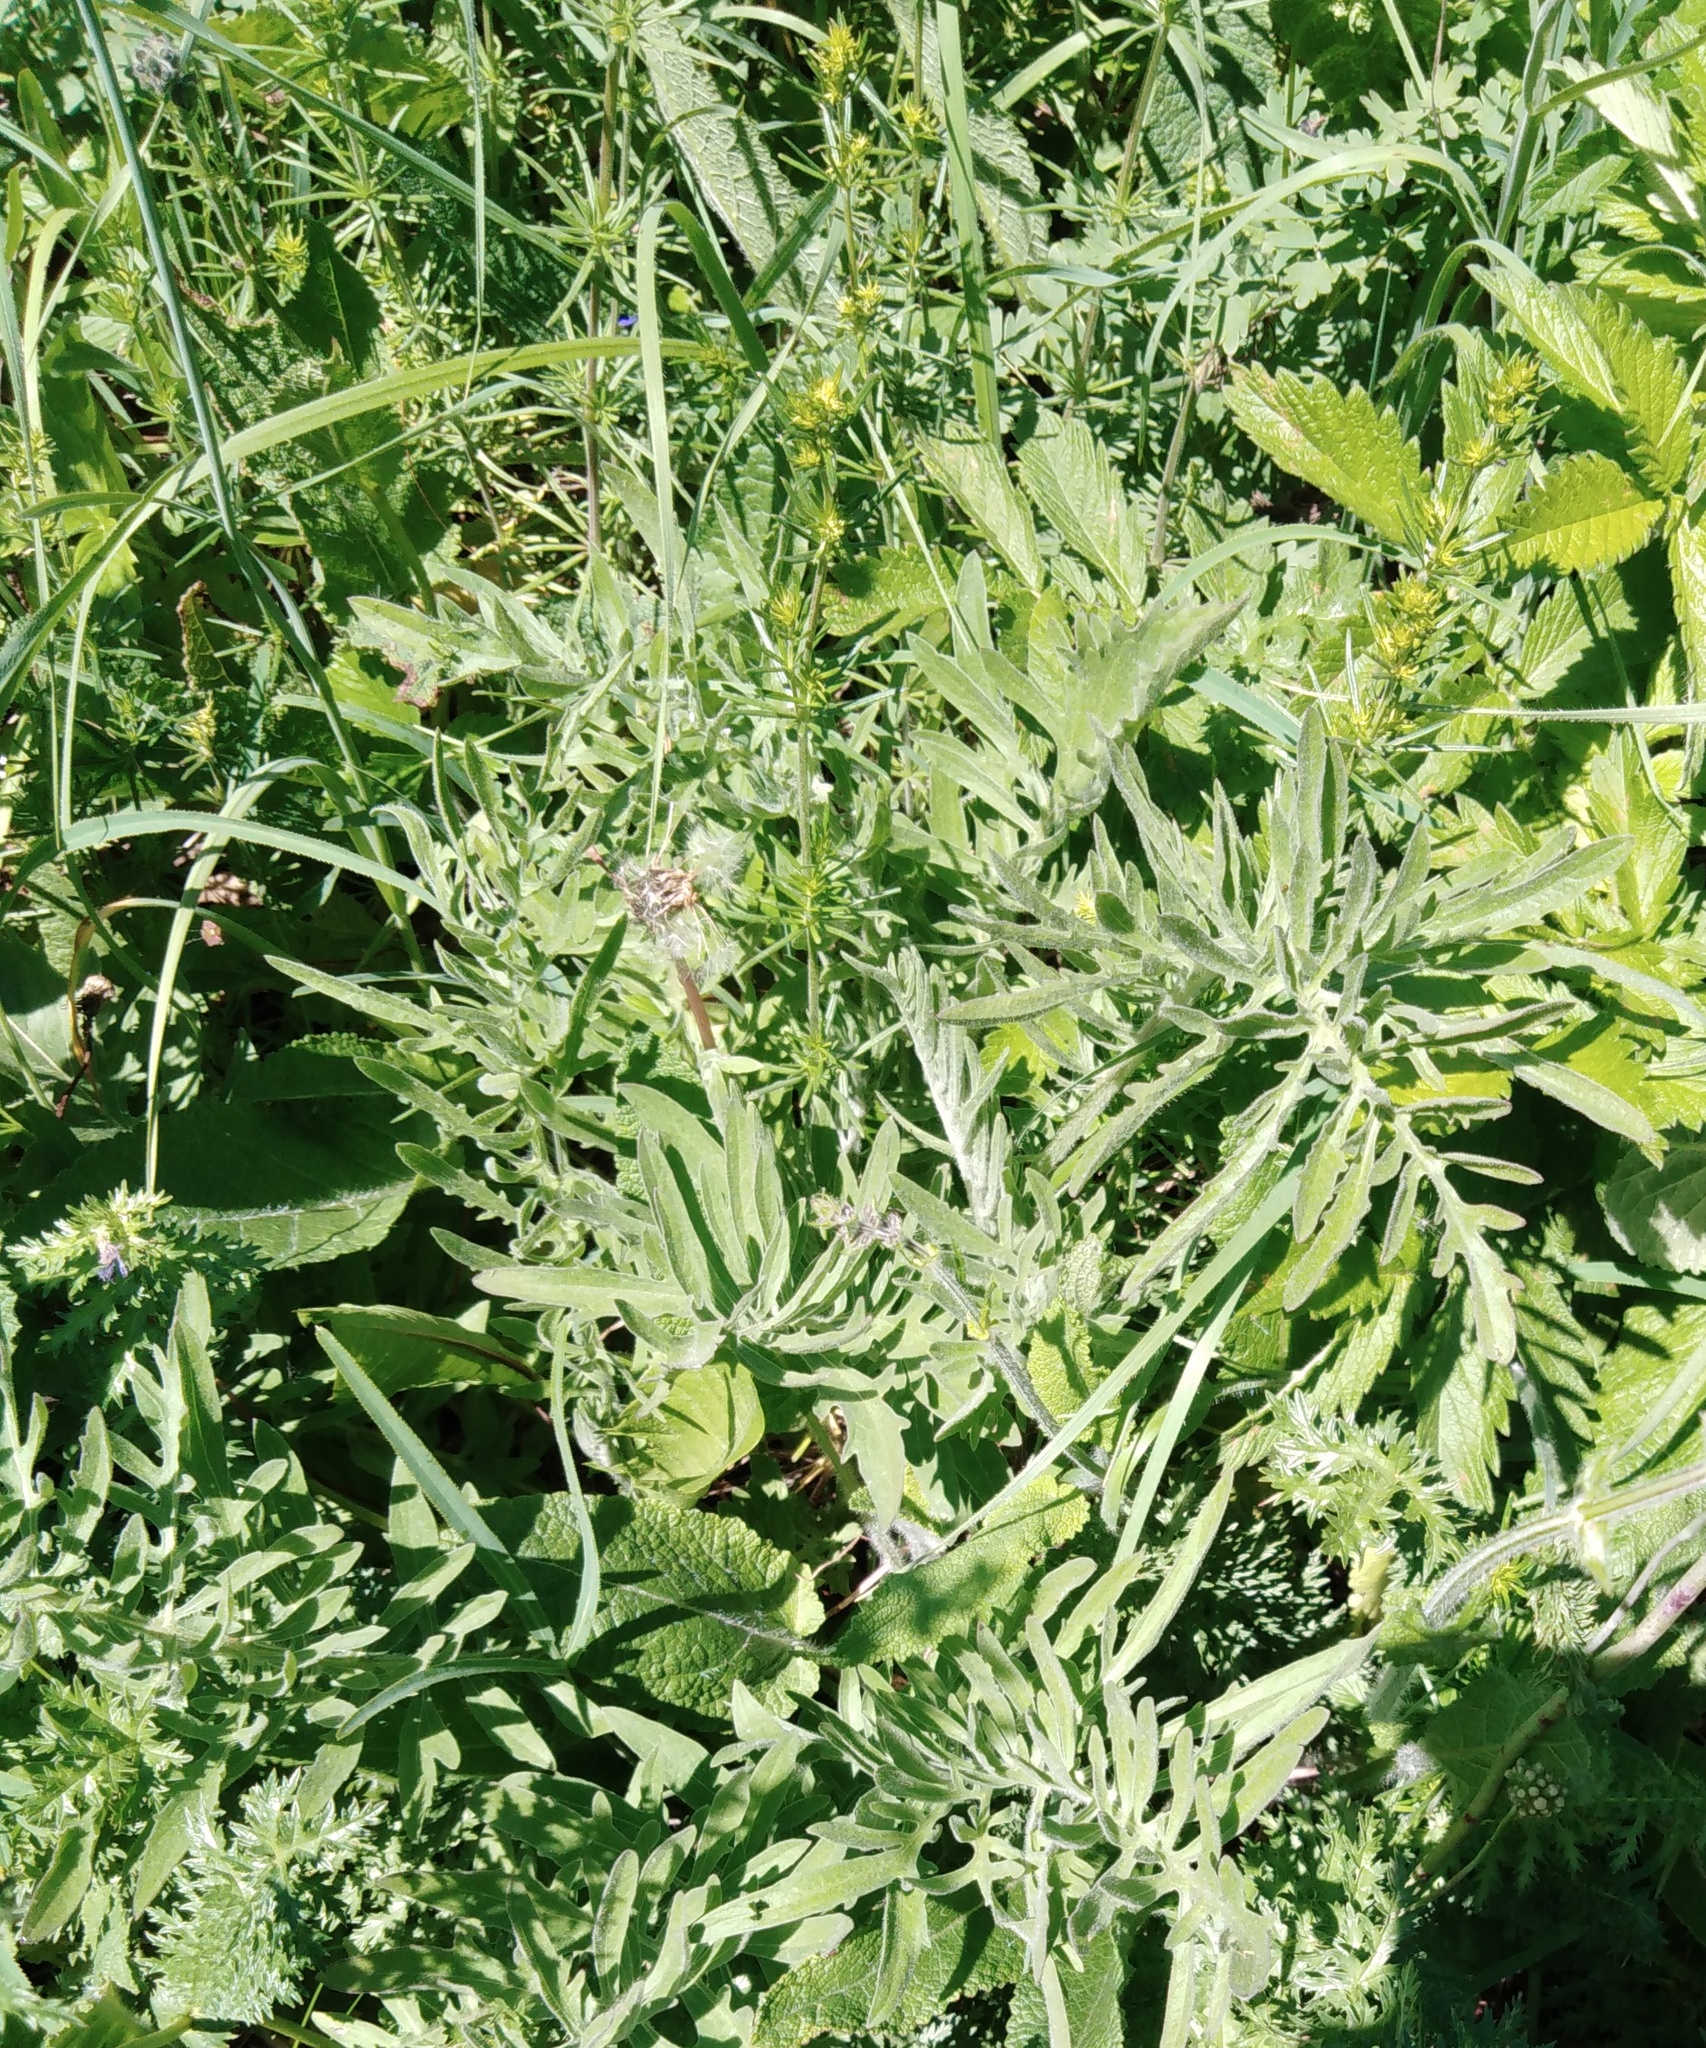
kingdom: Plantae
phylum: Tracheophyta
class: Magnoliopsida
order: Asterales
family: Asteraceae
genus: Centaurea
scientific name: Centaurea scabiosa
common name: Greater knapweed
